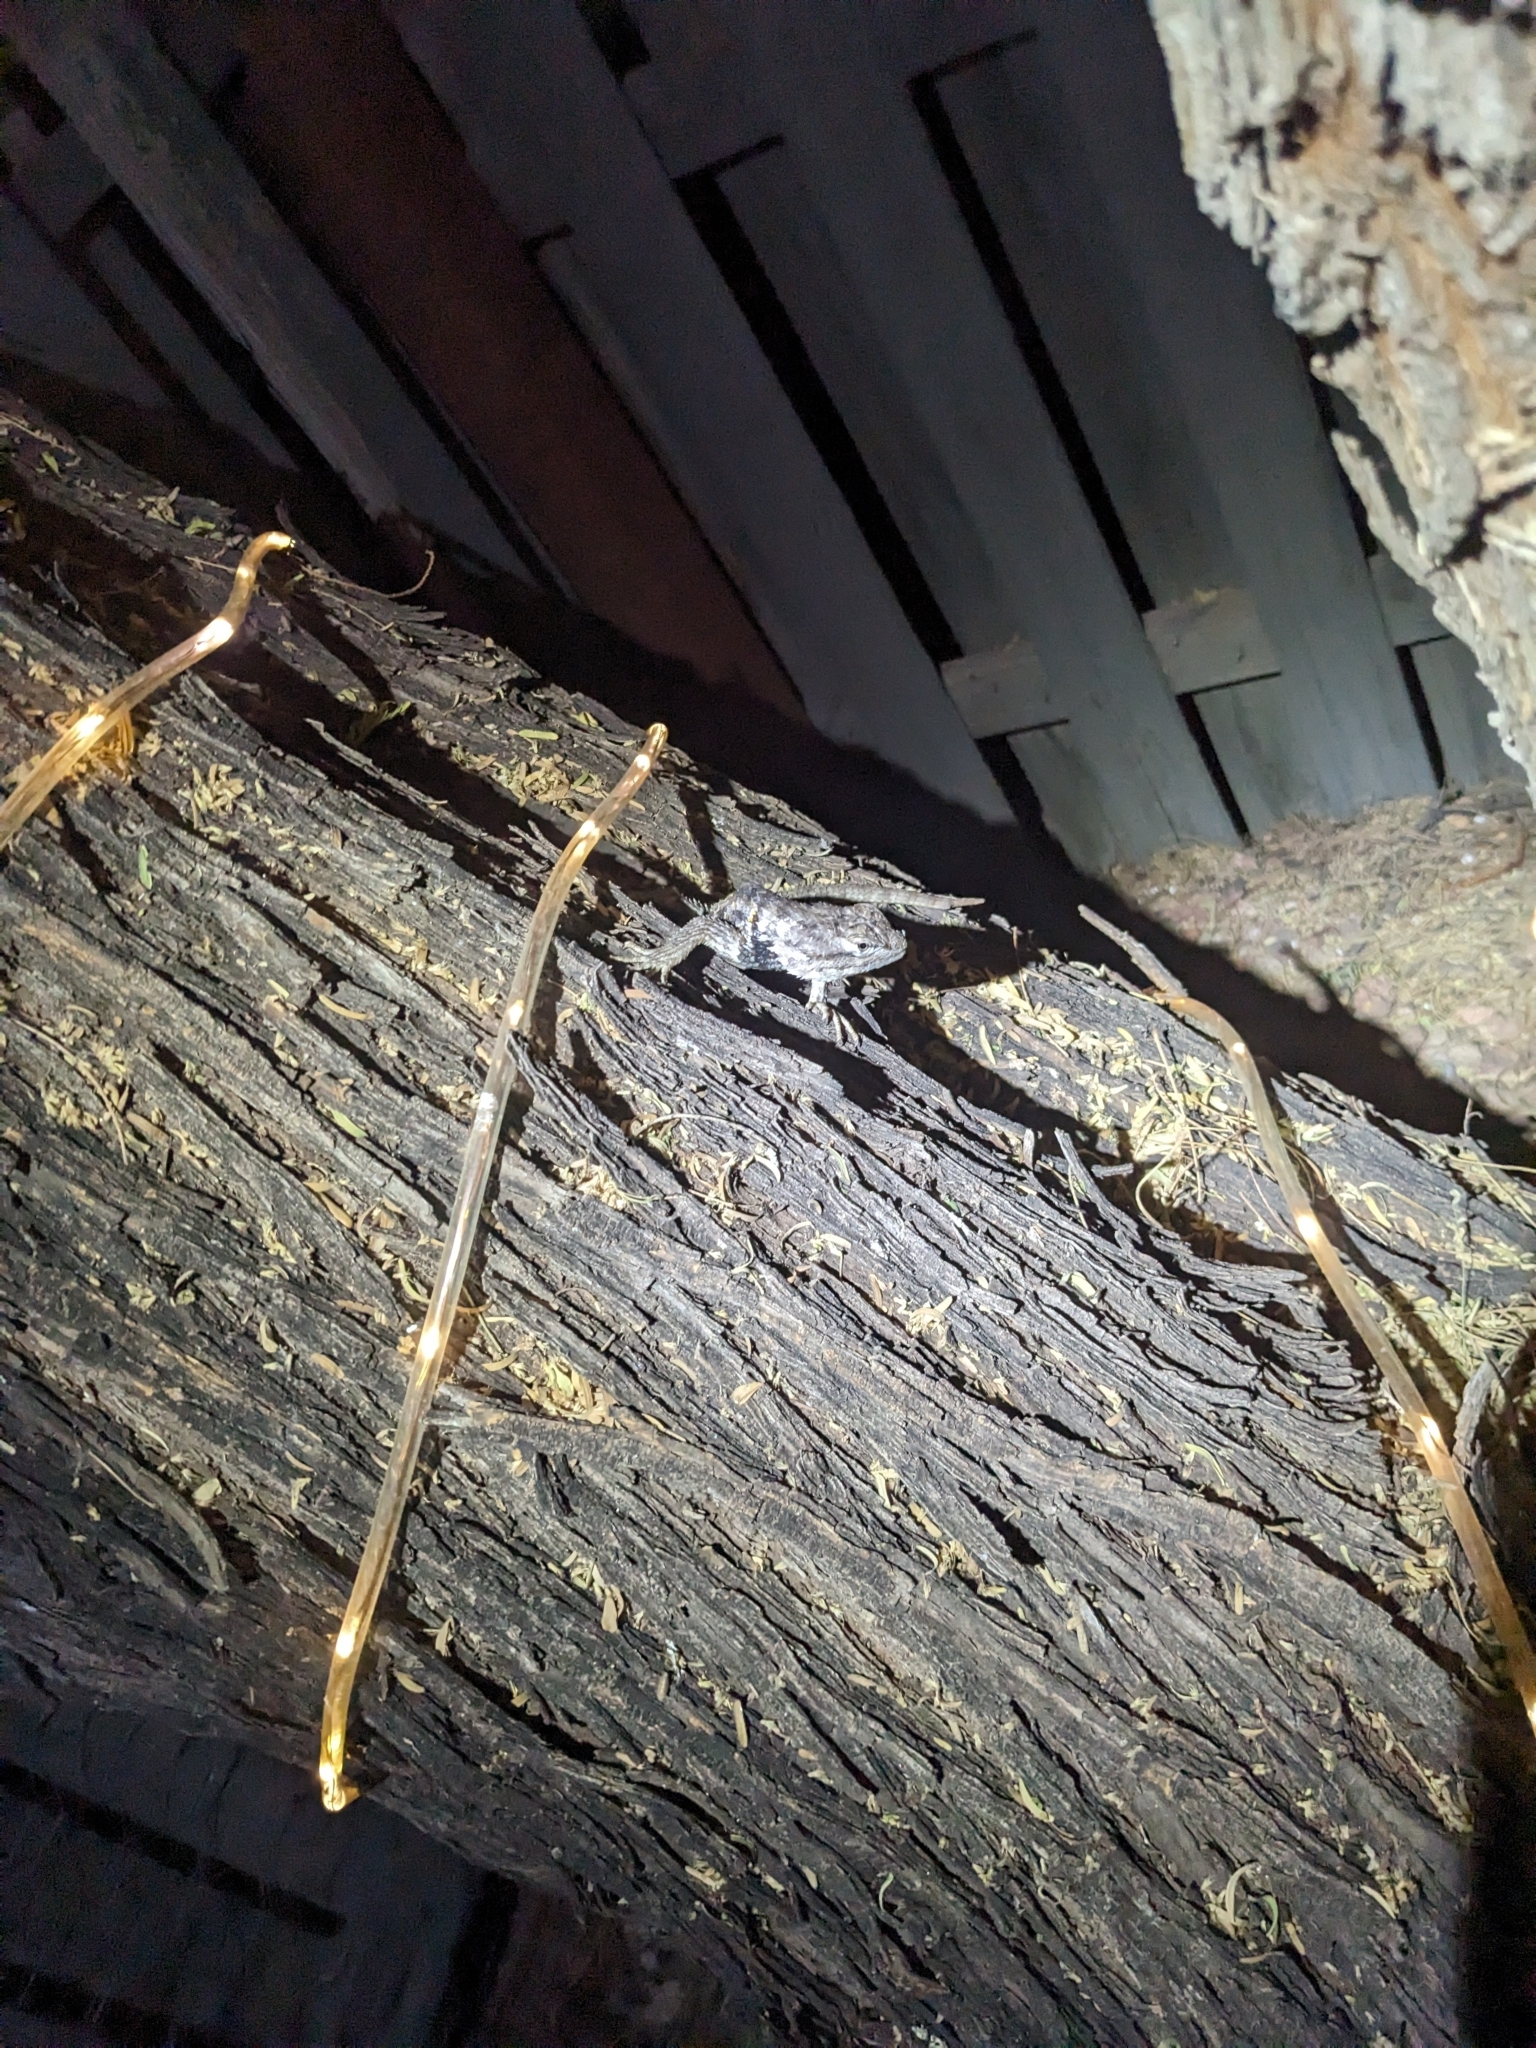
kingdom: Animalia
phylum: Chordata
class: Squamata
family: Phrynosomatidae
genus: Sceloporus
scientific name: Sceloporus magister
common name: Desert spiny lizard
